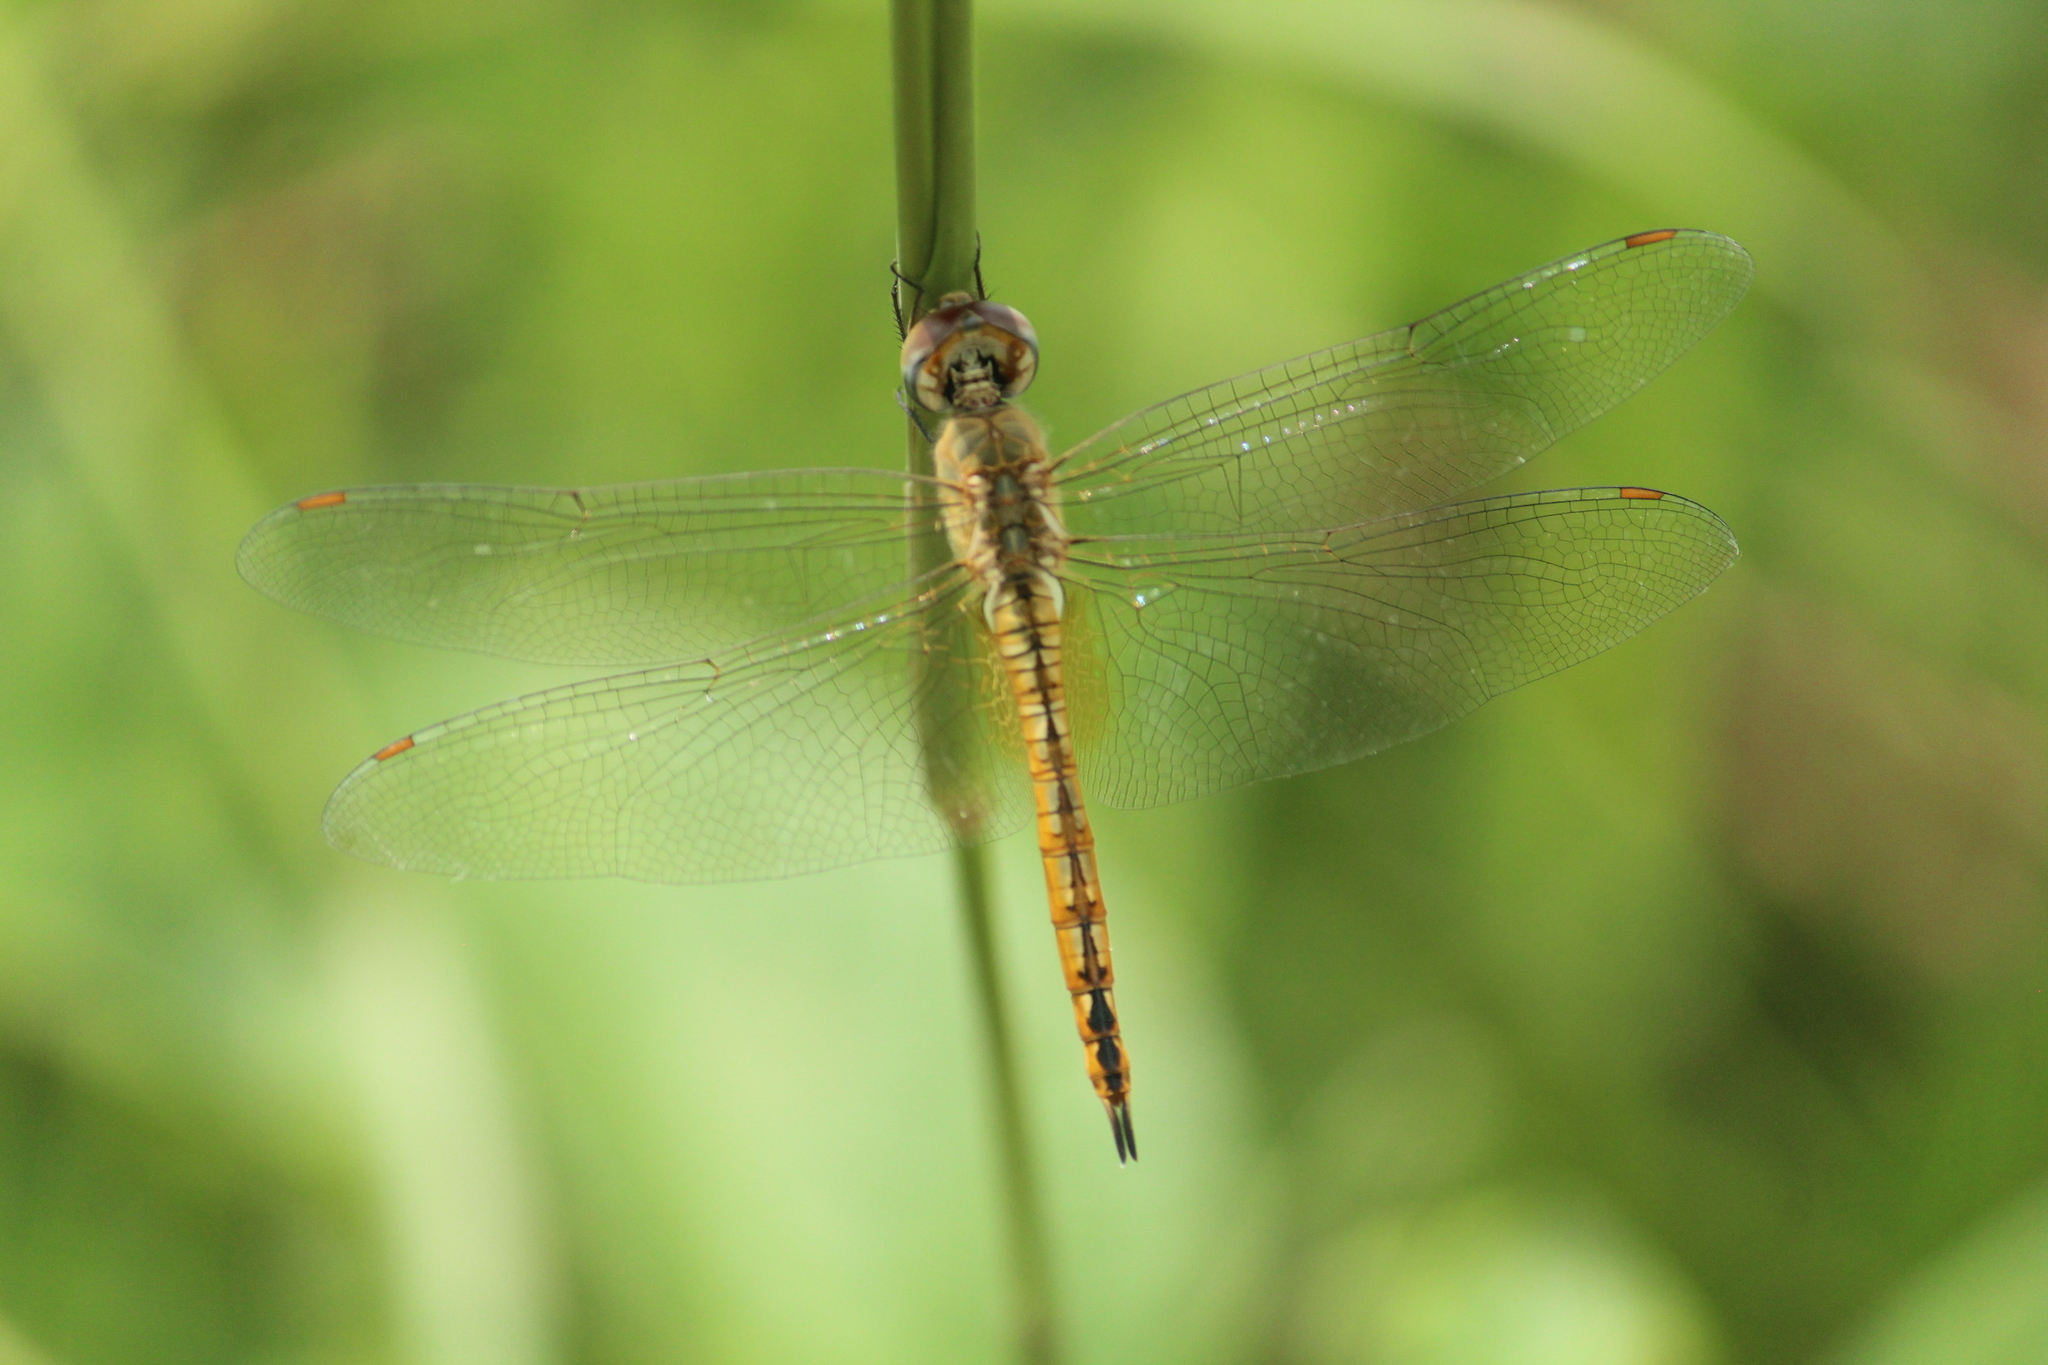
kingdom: Animalia
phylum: Arthropoda
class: Insecta
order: Odonata
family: Libellulidae
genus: Pantala
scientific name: Pantala flavescens
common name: Wandering glider
